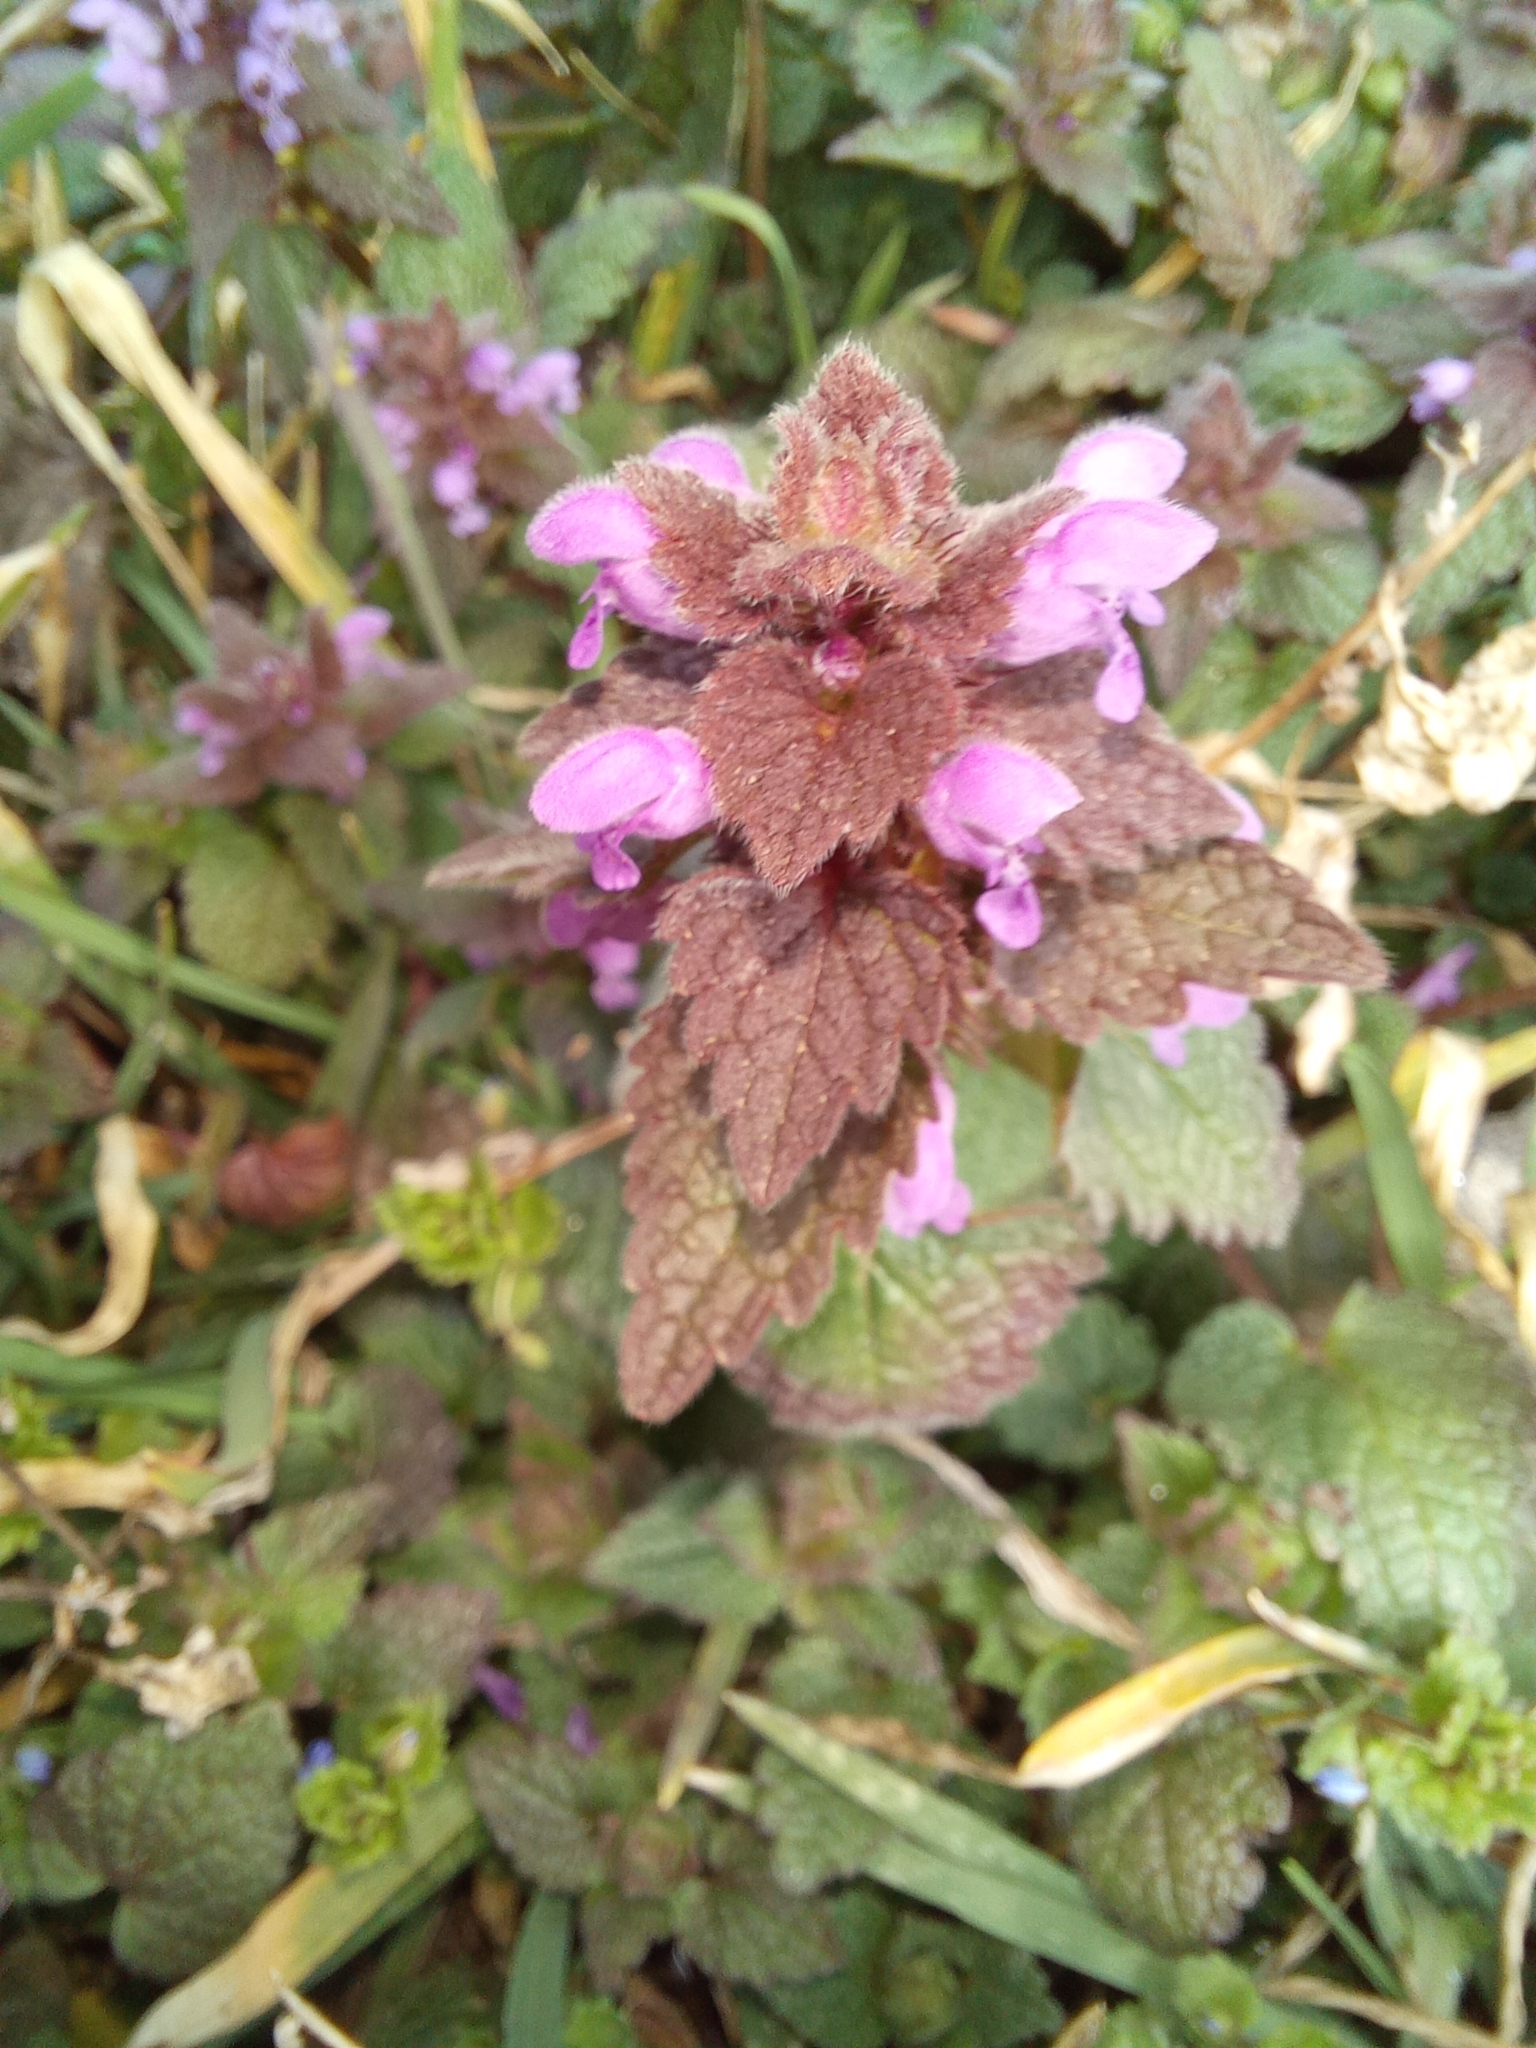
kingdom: Plantae
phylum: Tracheophyta
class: Magnoliopsida
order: Lamiales
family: Lamiaceae
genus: Lamium
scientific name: Lamium purpureum
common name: Red dead-nettle
